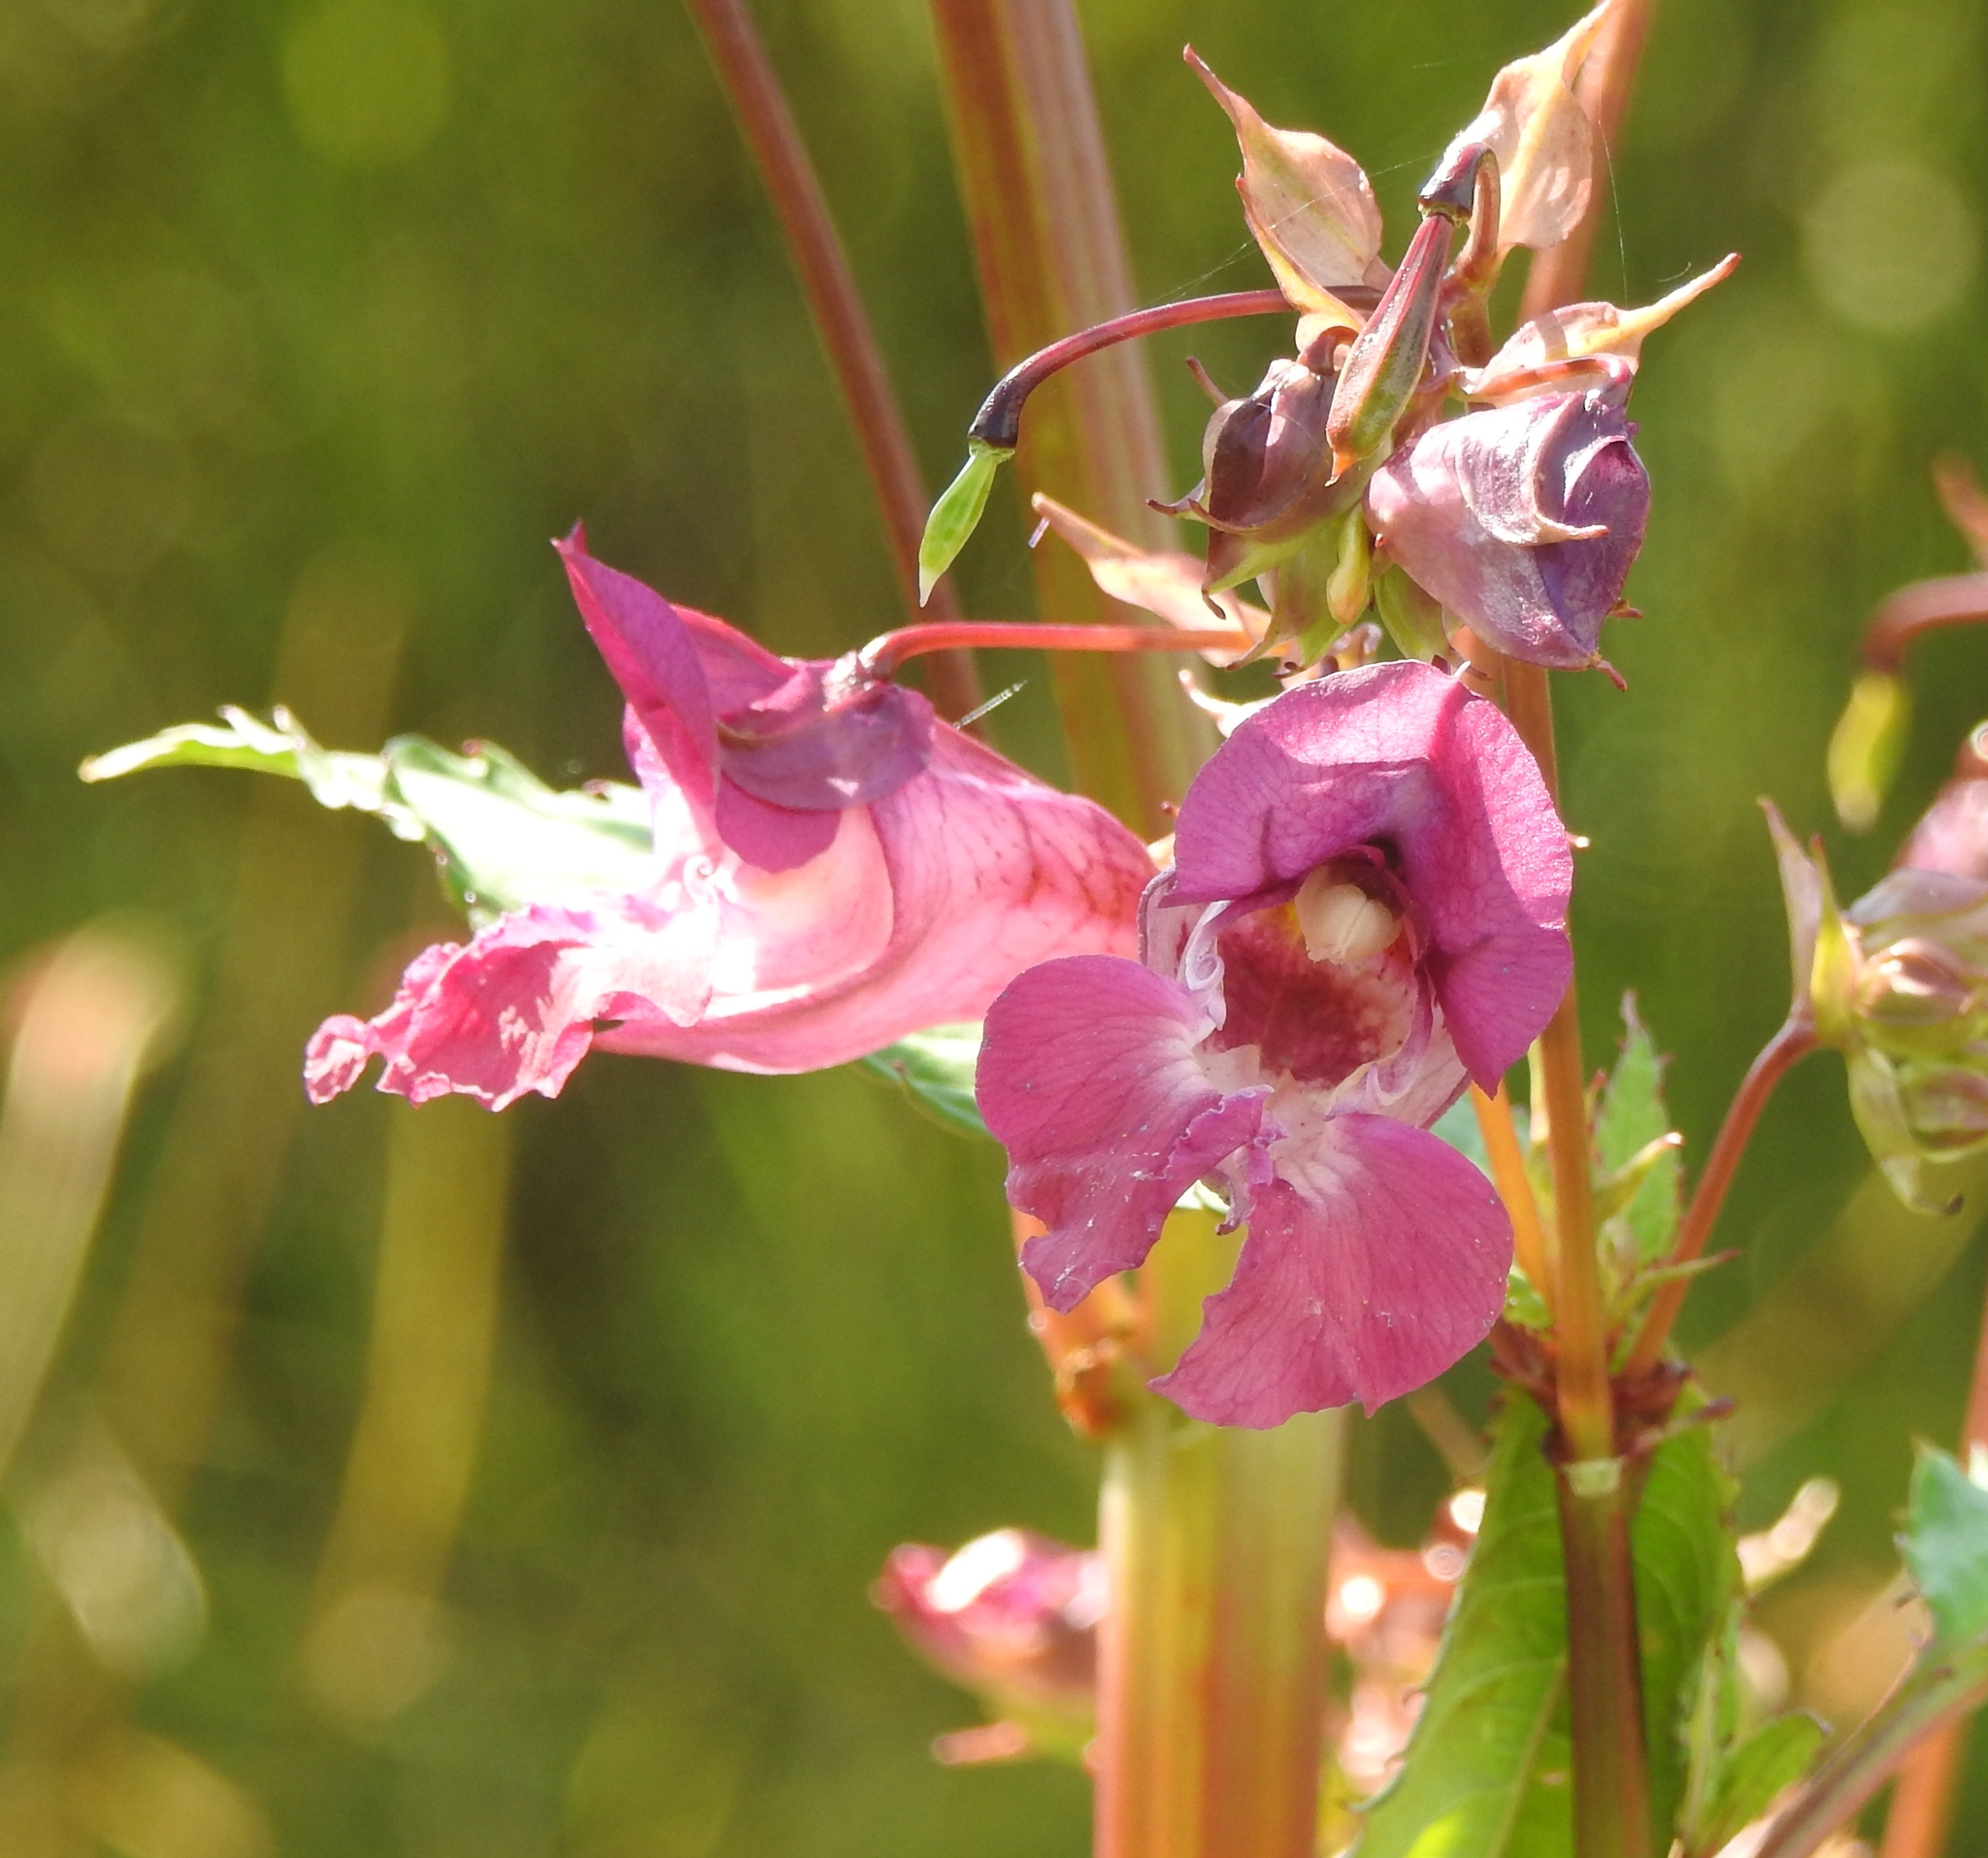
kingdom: Plantae
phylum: Tracheophyta
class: Magnoliopsida
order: Ericales
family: Balsaminaceae
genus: Impatiens
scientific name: Impatiens glandulifera
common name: Himalayan balsam
